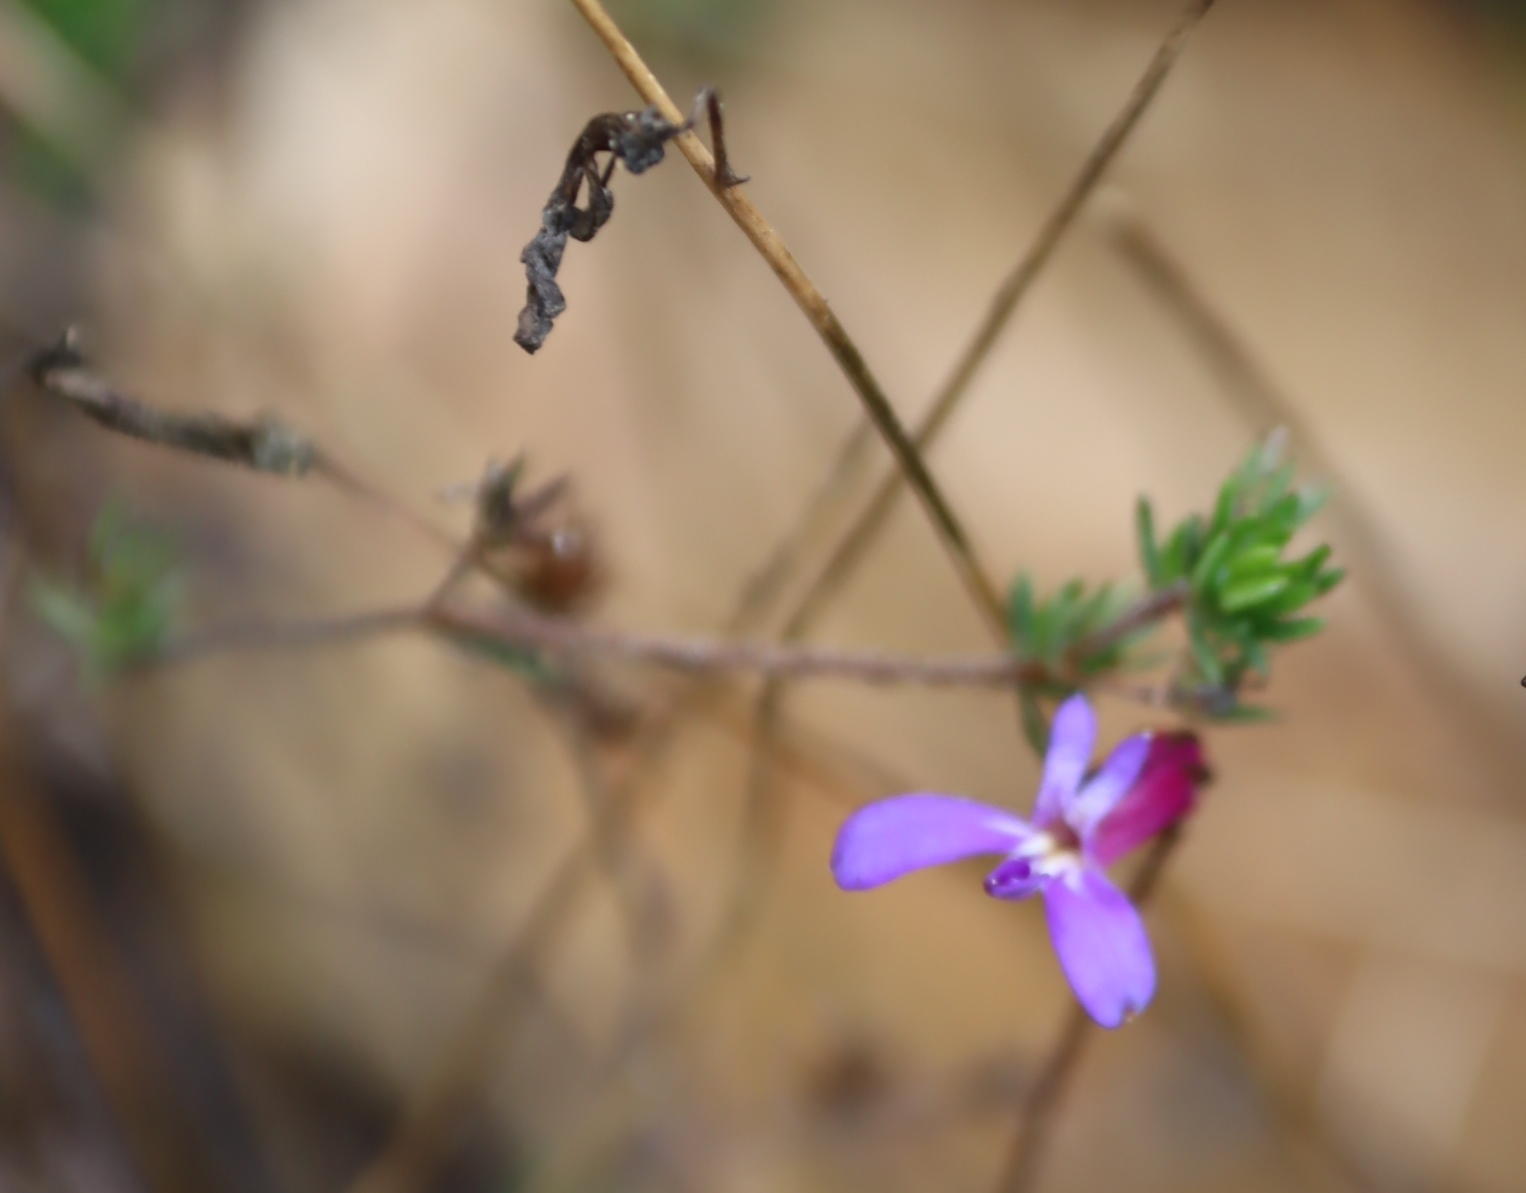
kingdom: Plantae
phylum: Tracheophyta
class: Magnoliopsida
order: Asterales
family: Campanulaceae
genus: Lobelia
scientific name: Lobelia tomentosa
